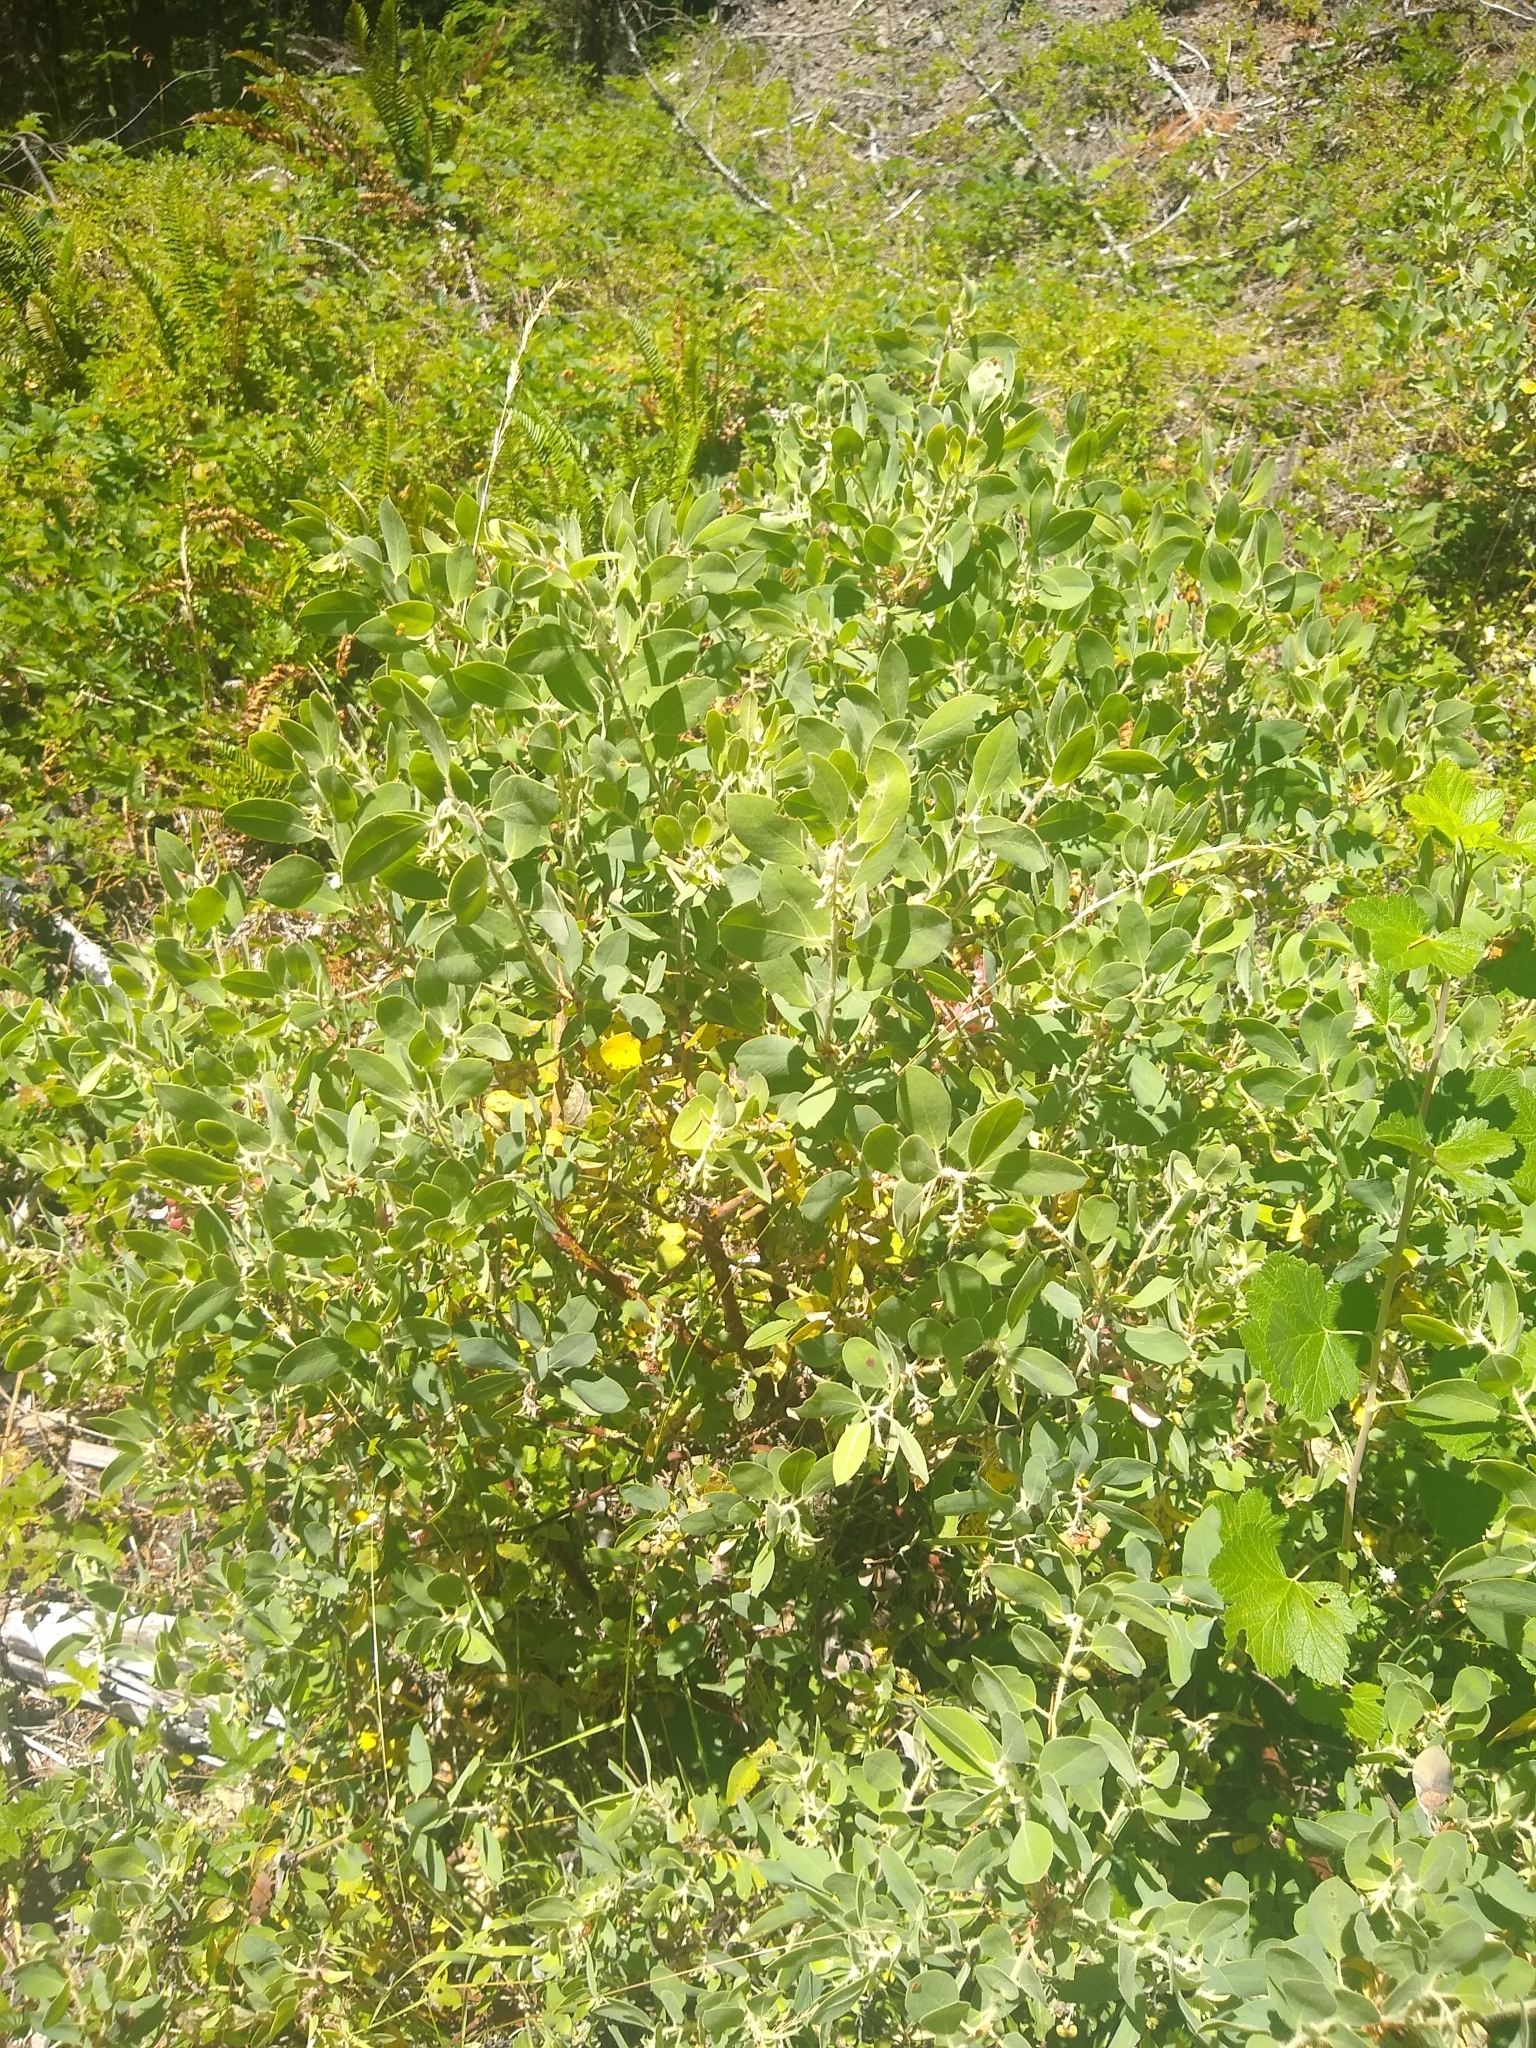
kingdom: Plantae
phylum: Tracheophyta
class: Magnoliopsida
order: Ericales
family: Ericaceae
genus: Arctostaphylos
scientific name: Arctostaphylos columbiana
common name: Bristly bearberry
